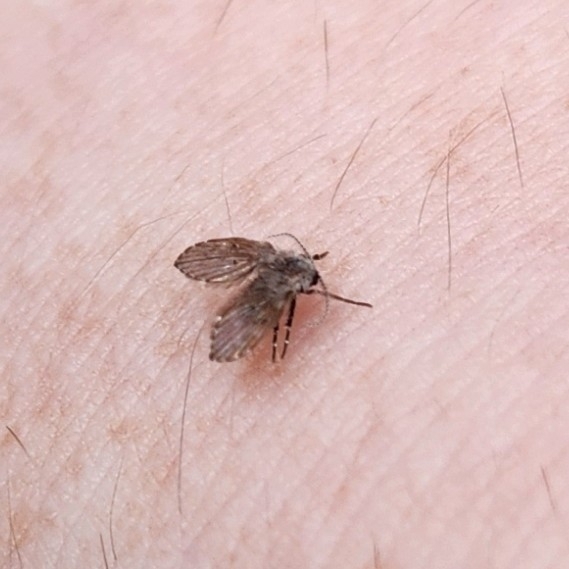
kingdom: Animalia
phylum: Arthropoda
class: Insecta
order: Diptera
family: Psychodidae
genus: Clogmia
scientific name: Clogmia albipunctatus
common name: White-spotted moth fly
